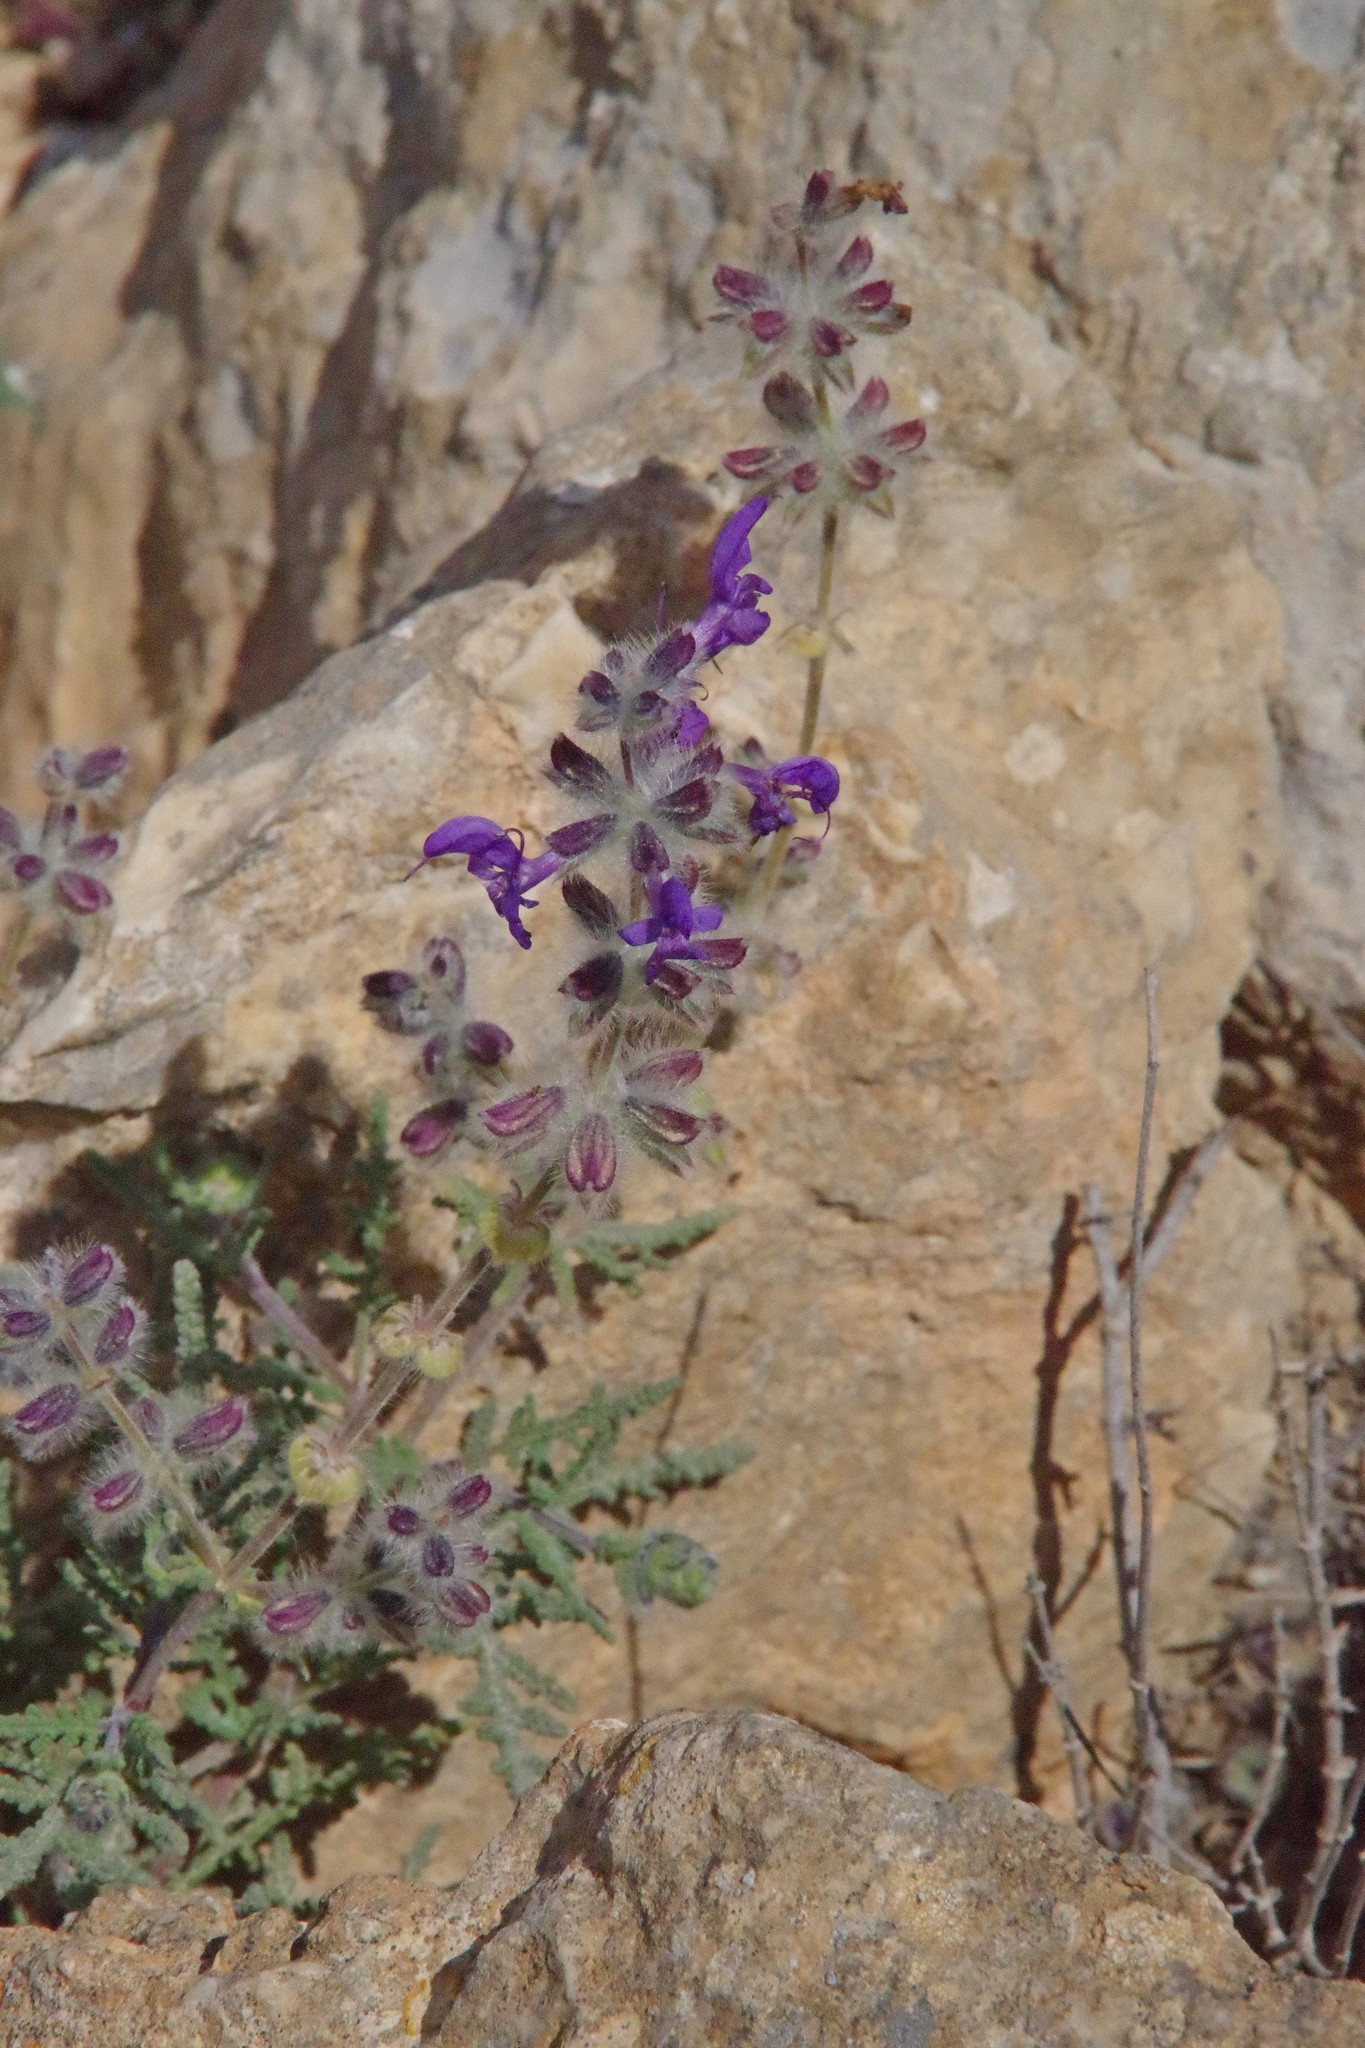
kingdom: Plantae
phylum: Tracheophyta
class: Magnoliopsida
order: Lamiales
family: Lamiaceae
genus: Salvia
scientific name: Salvia lanigera
